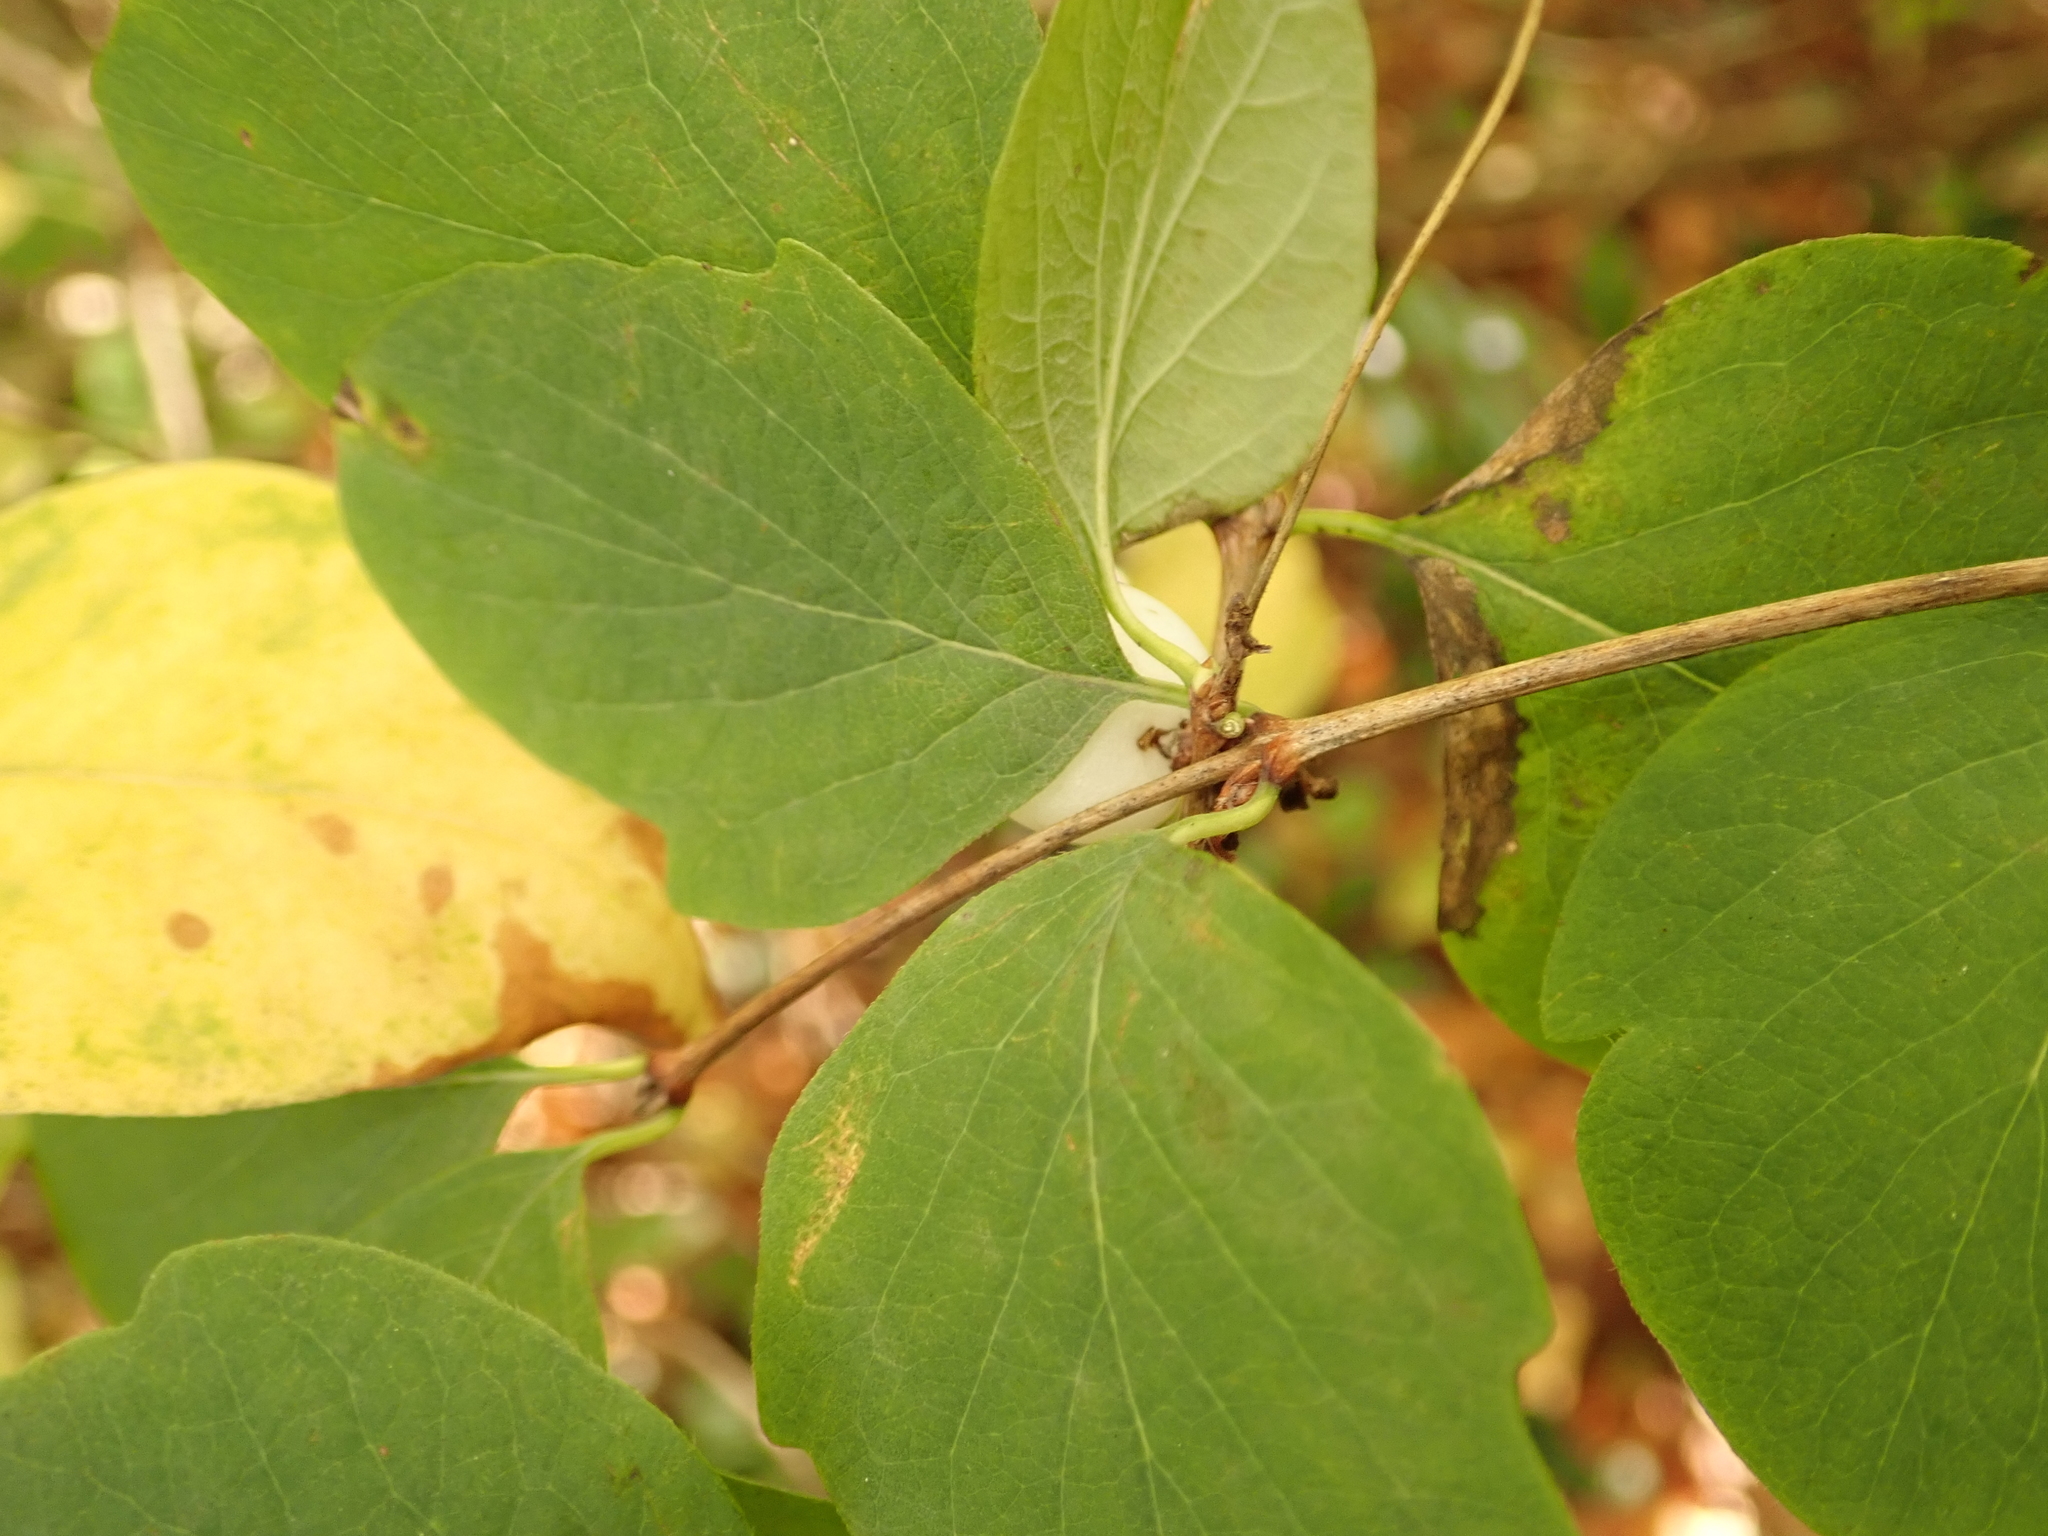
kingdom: Plantae
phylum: Tracheophyta
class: Magnoliopsida
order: Dipsacales
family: Caprifoliaceae
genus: Symphoricarpos
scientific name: Symphoricarpos albus
